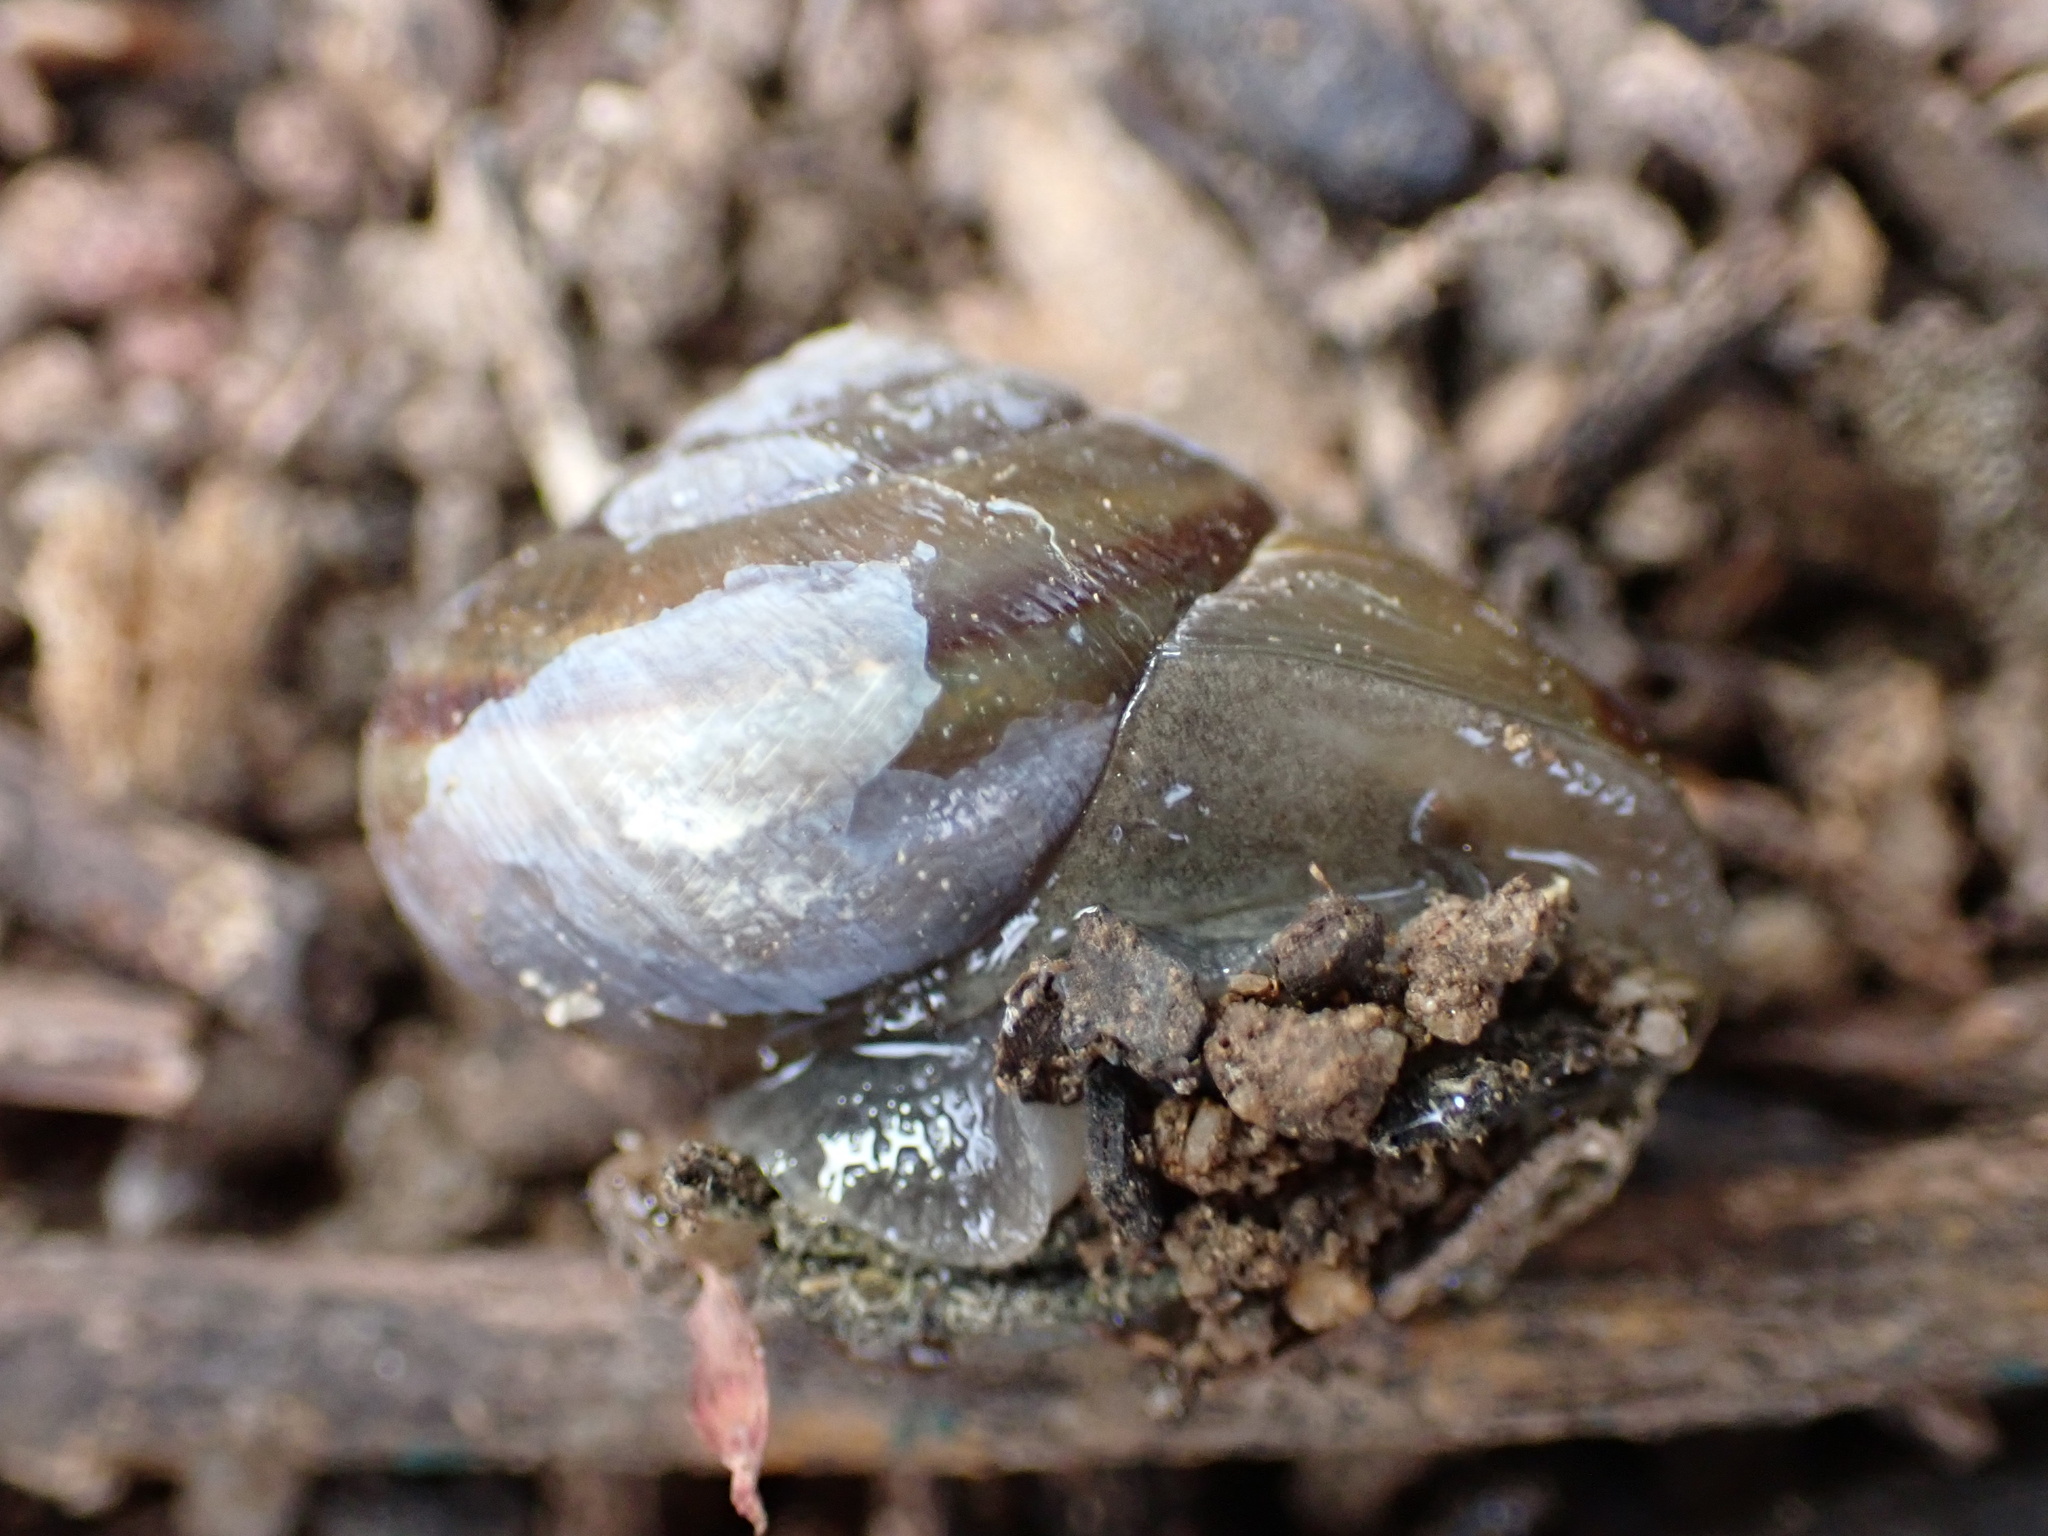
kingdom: Animalia
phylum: Mollusca
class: Gastropoda
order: Stylommatophora
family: Xanthonychidae
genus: Helminthoglypta
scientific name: Helminthoglypta tudiculata
